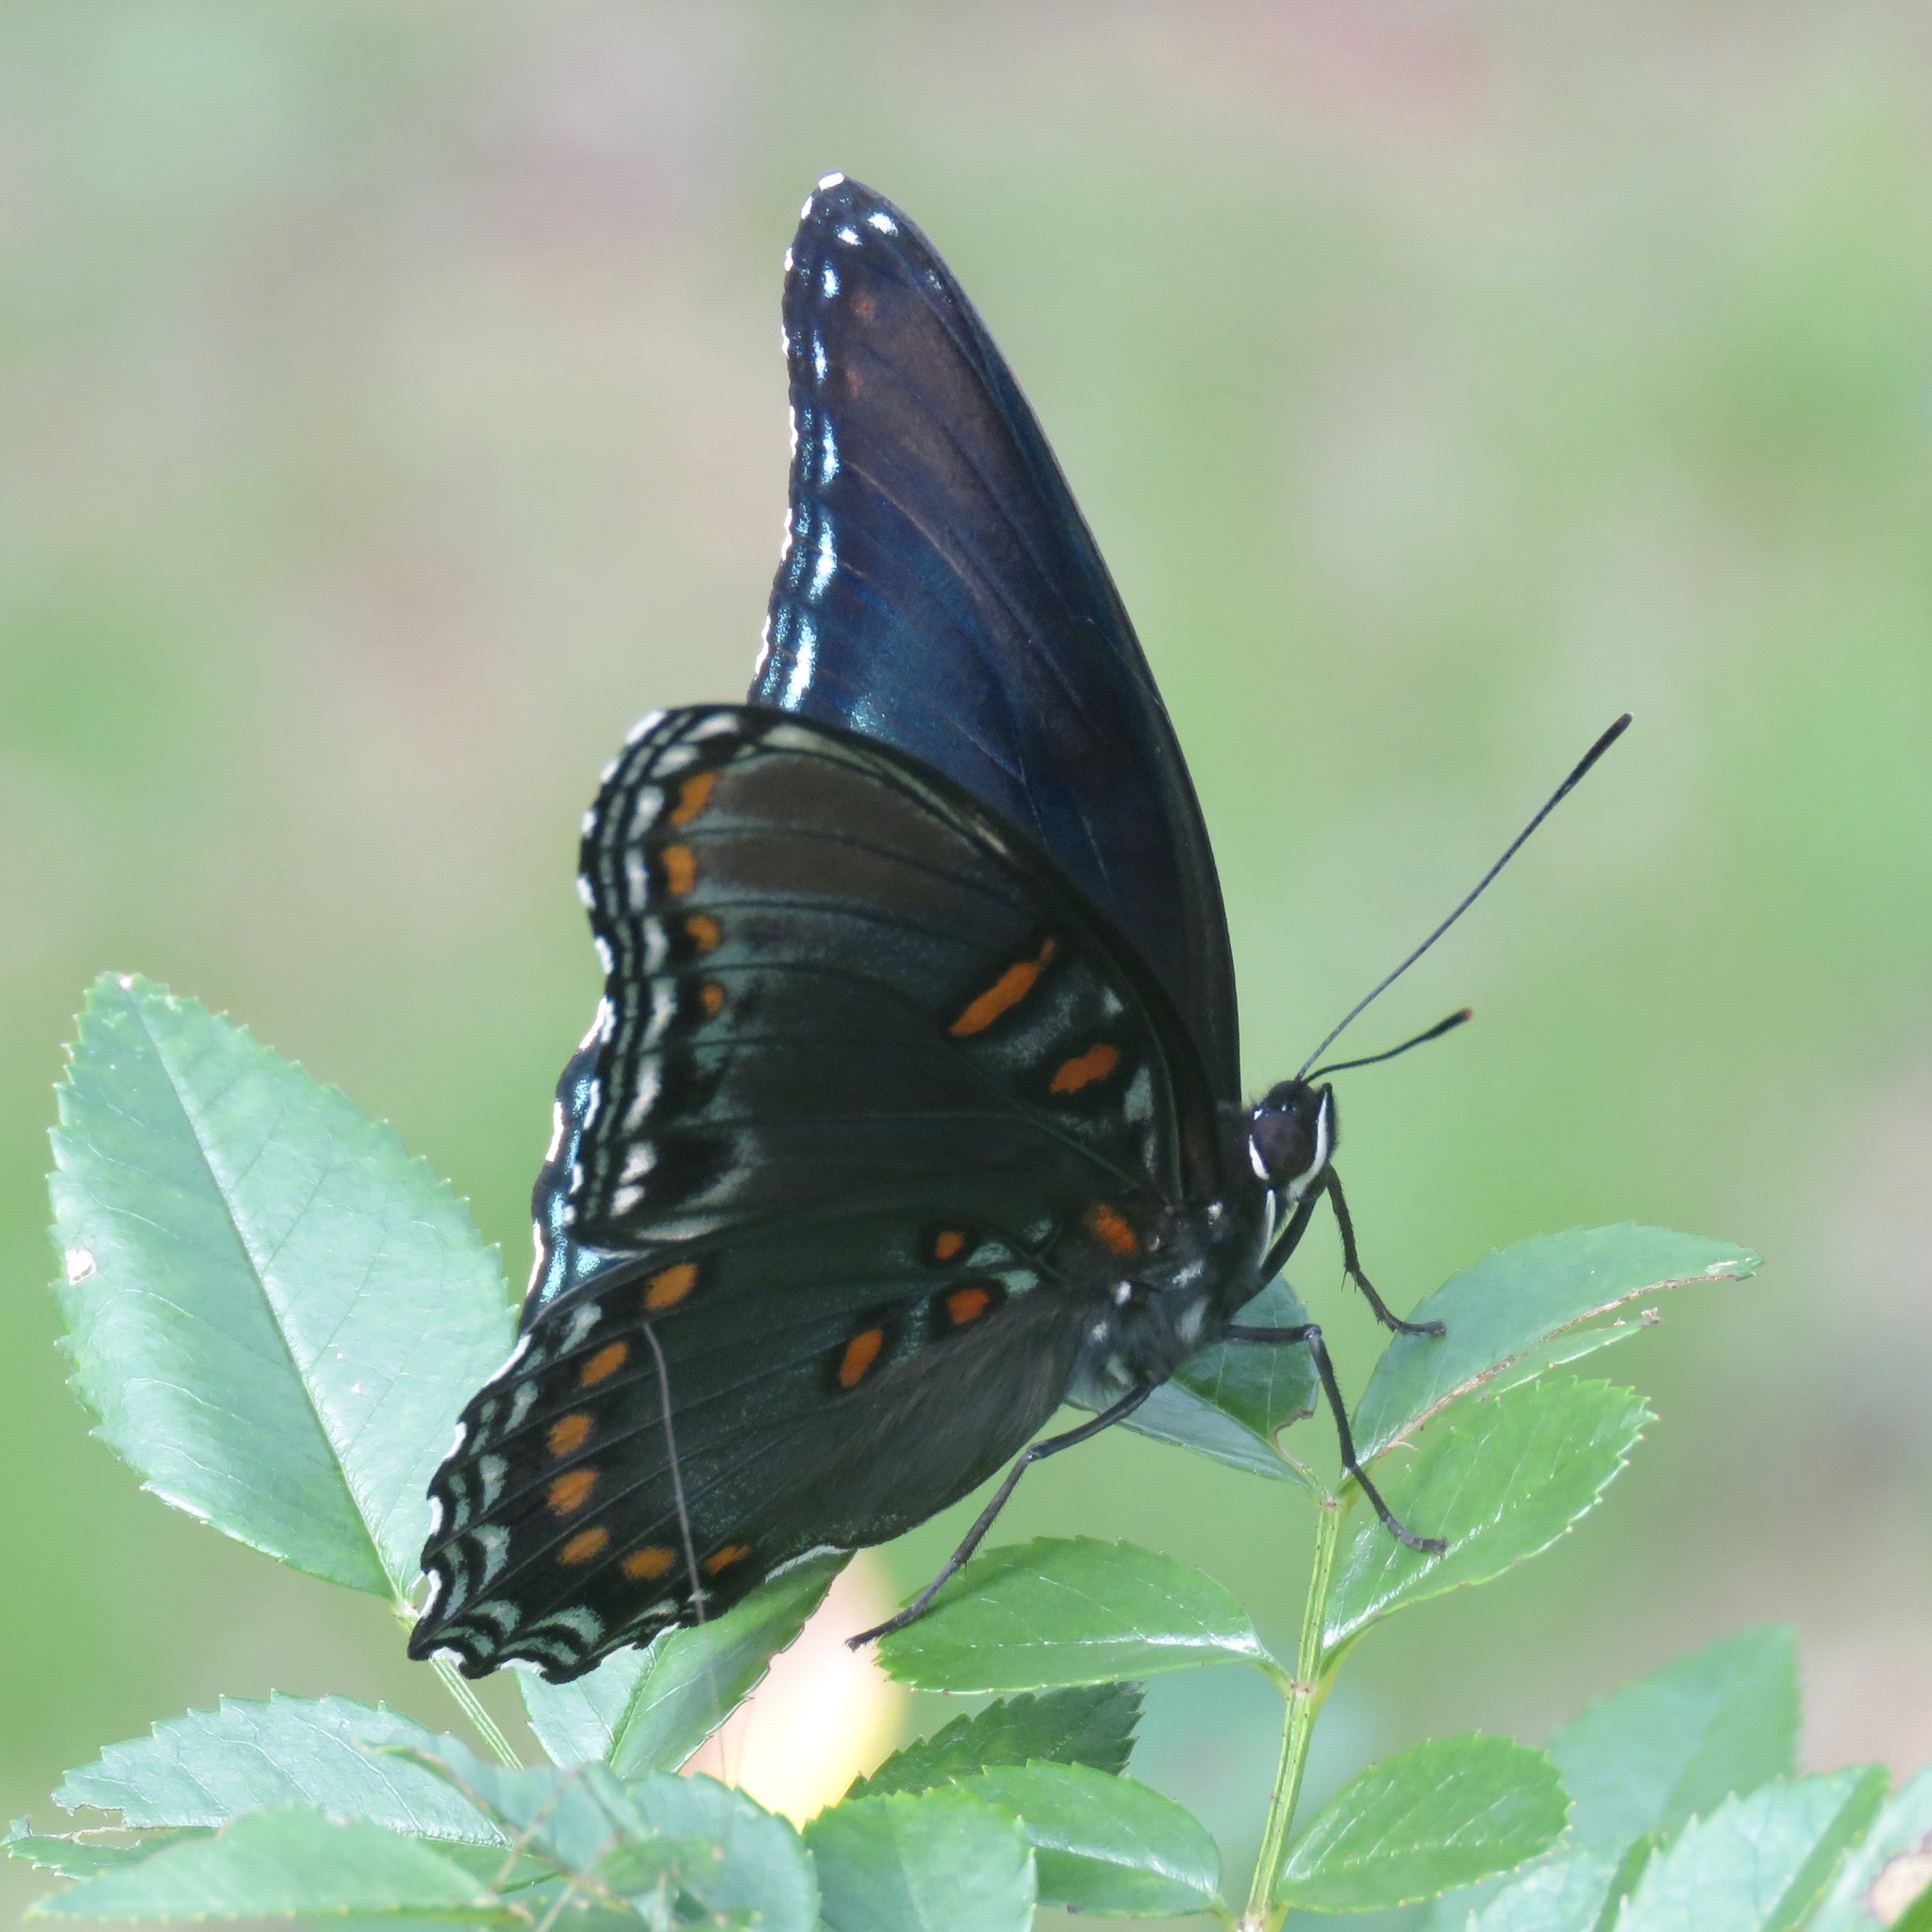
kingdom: Animalia
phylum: Arthropoda
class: Insecta
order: Lepidoptera
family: Nymphalidae
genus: Limenitis
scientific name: Limenitis astyanax
